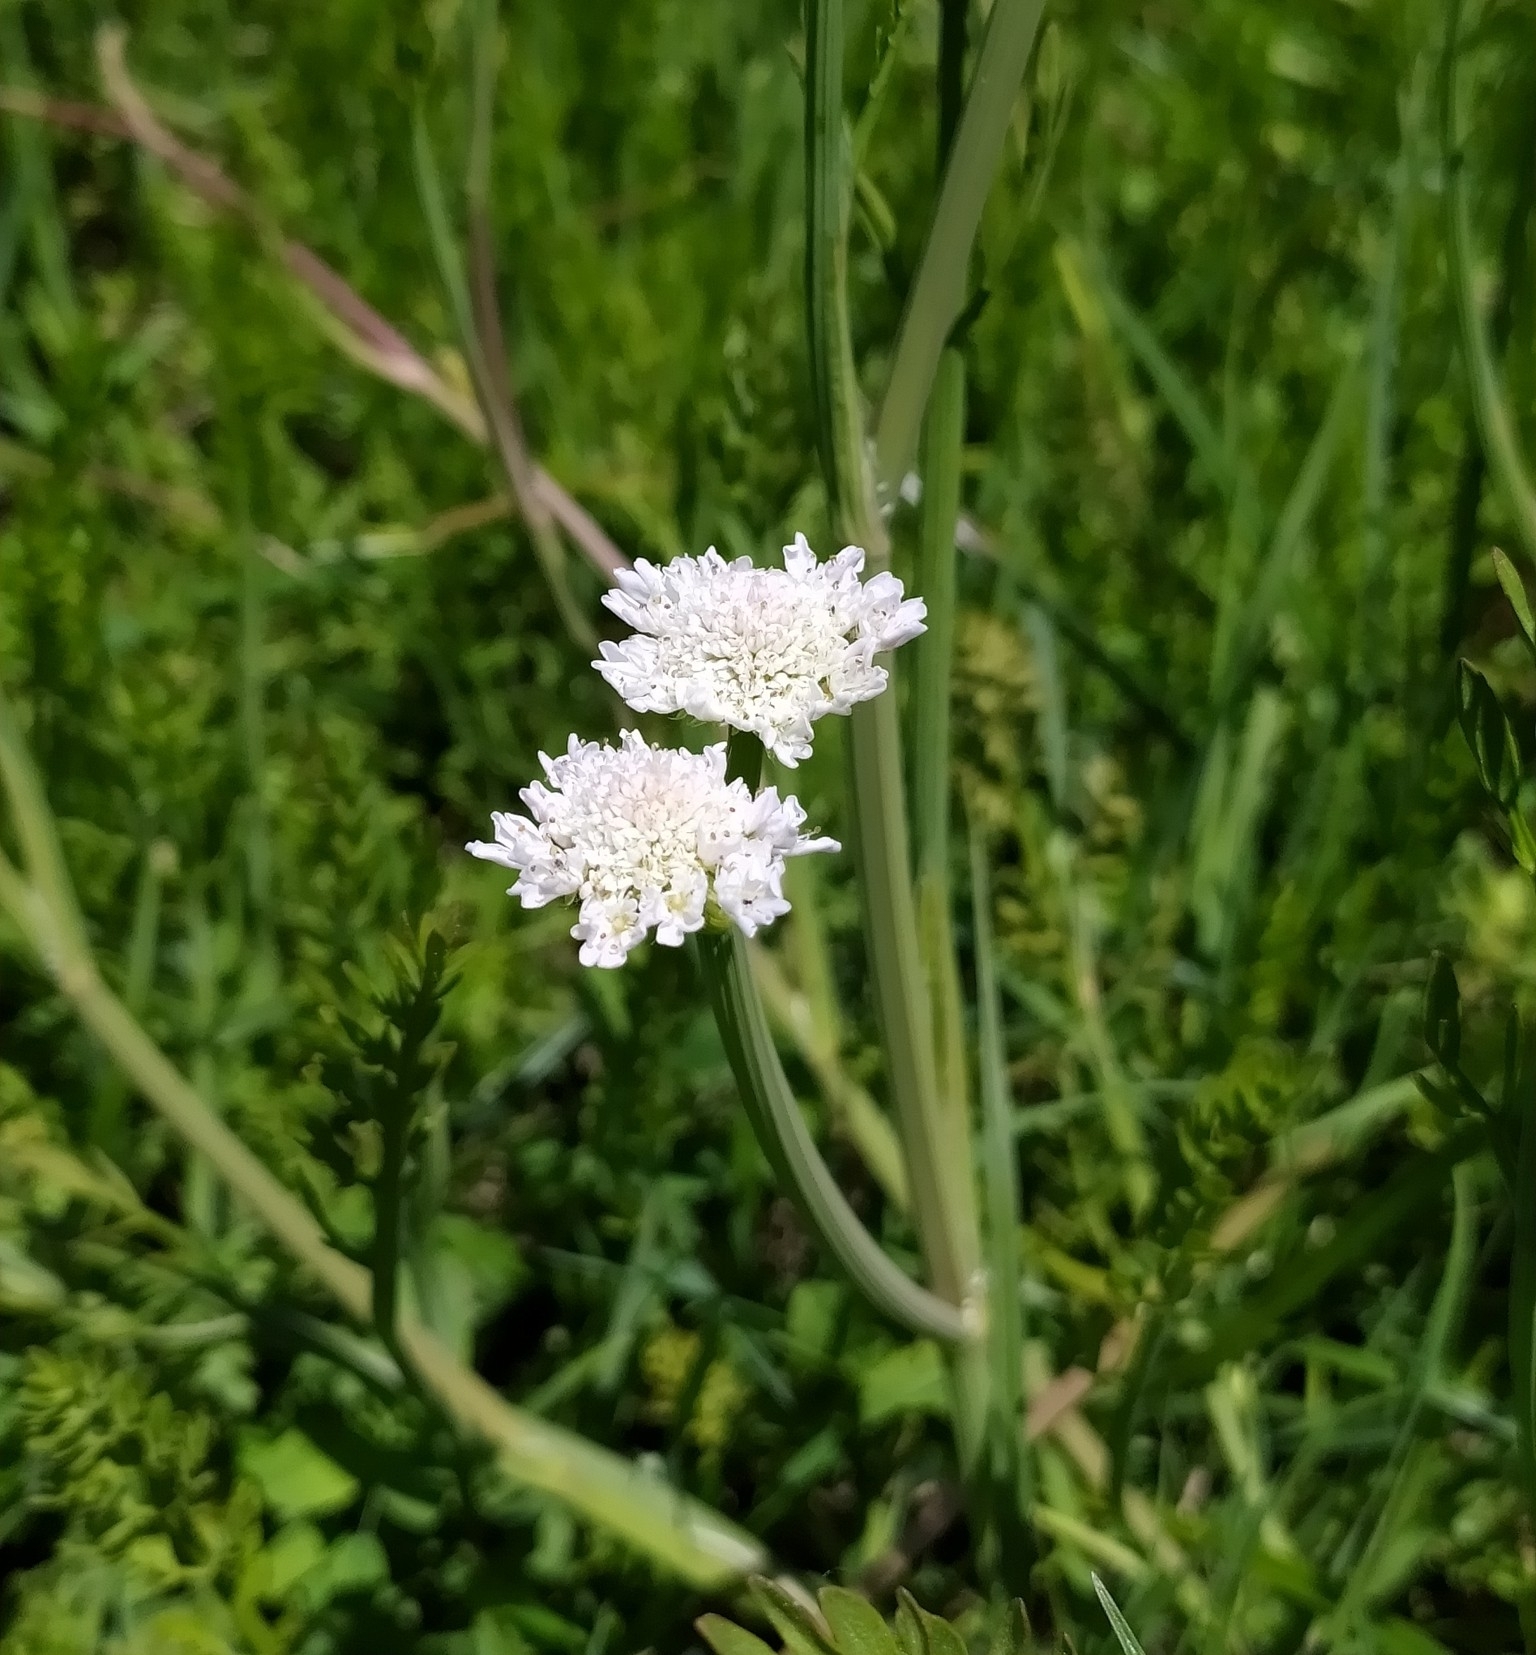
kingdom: Plantae
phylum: Tracheophyta
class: Magnoliopsida
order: Apiales
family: Apiaceae
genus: Oenanthe
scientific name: Oenanthe fistulosa
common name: Tubular water-dropwort
